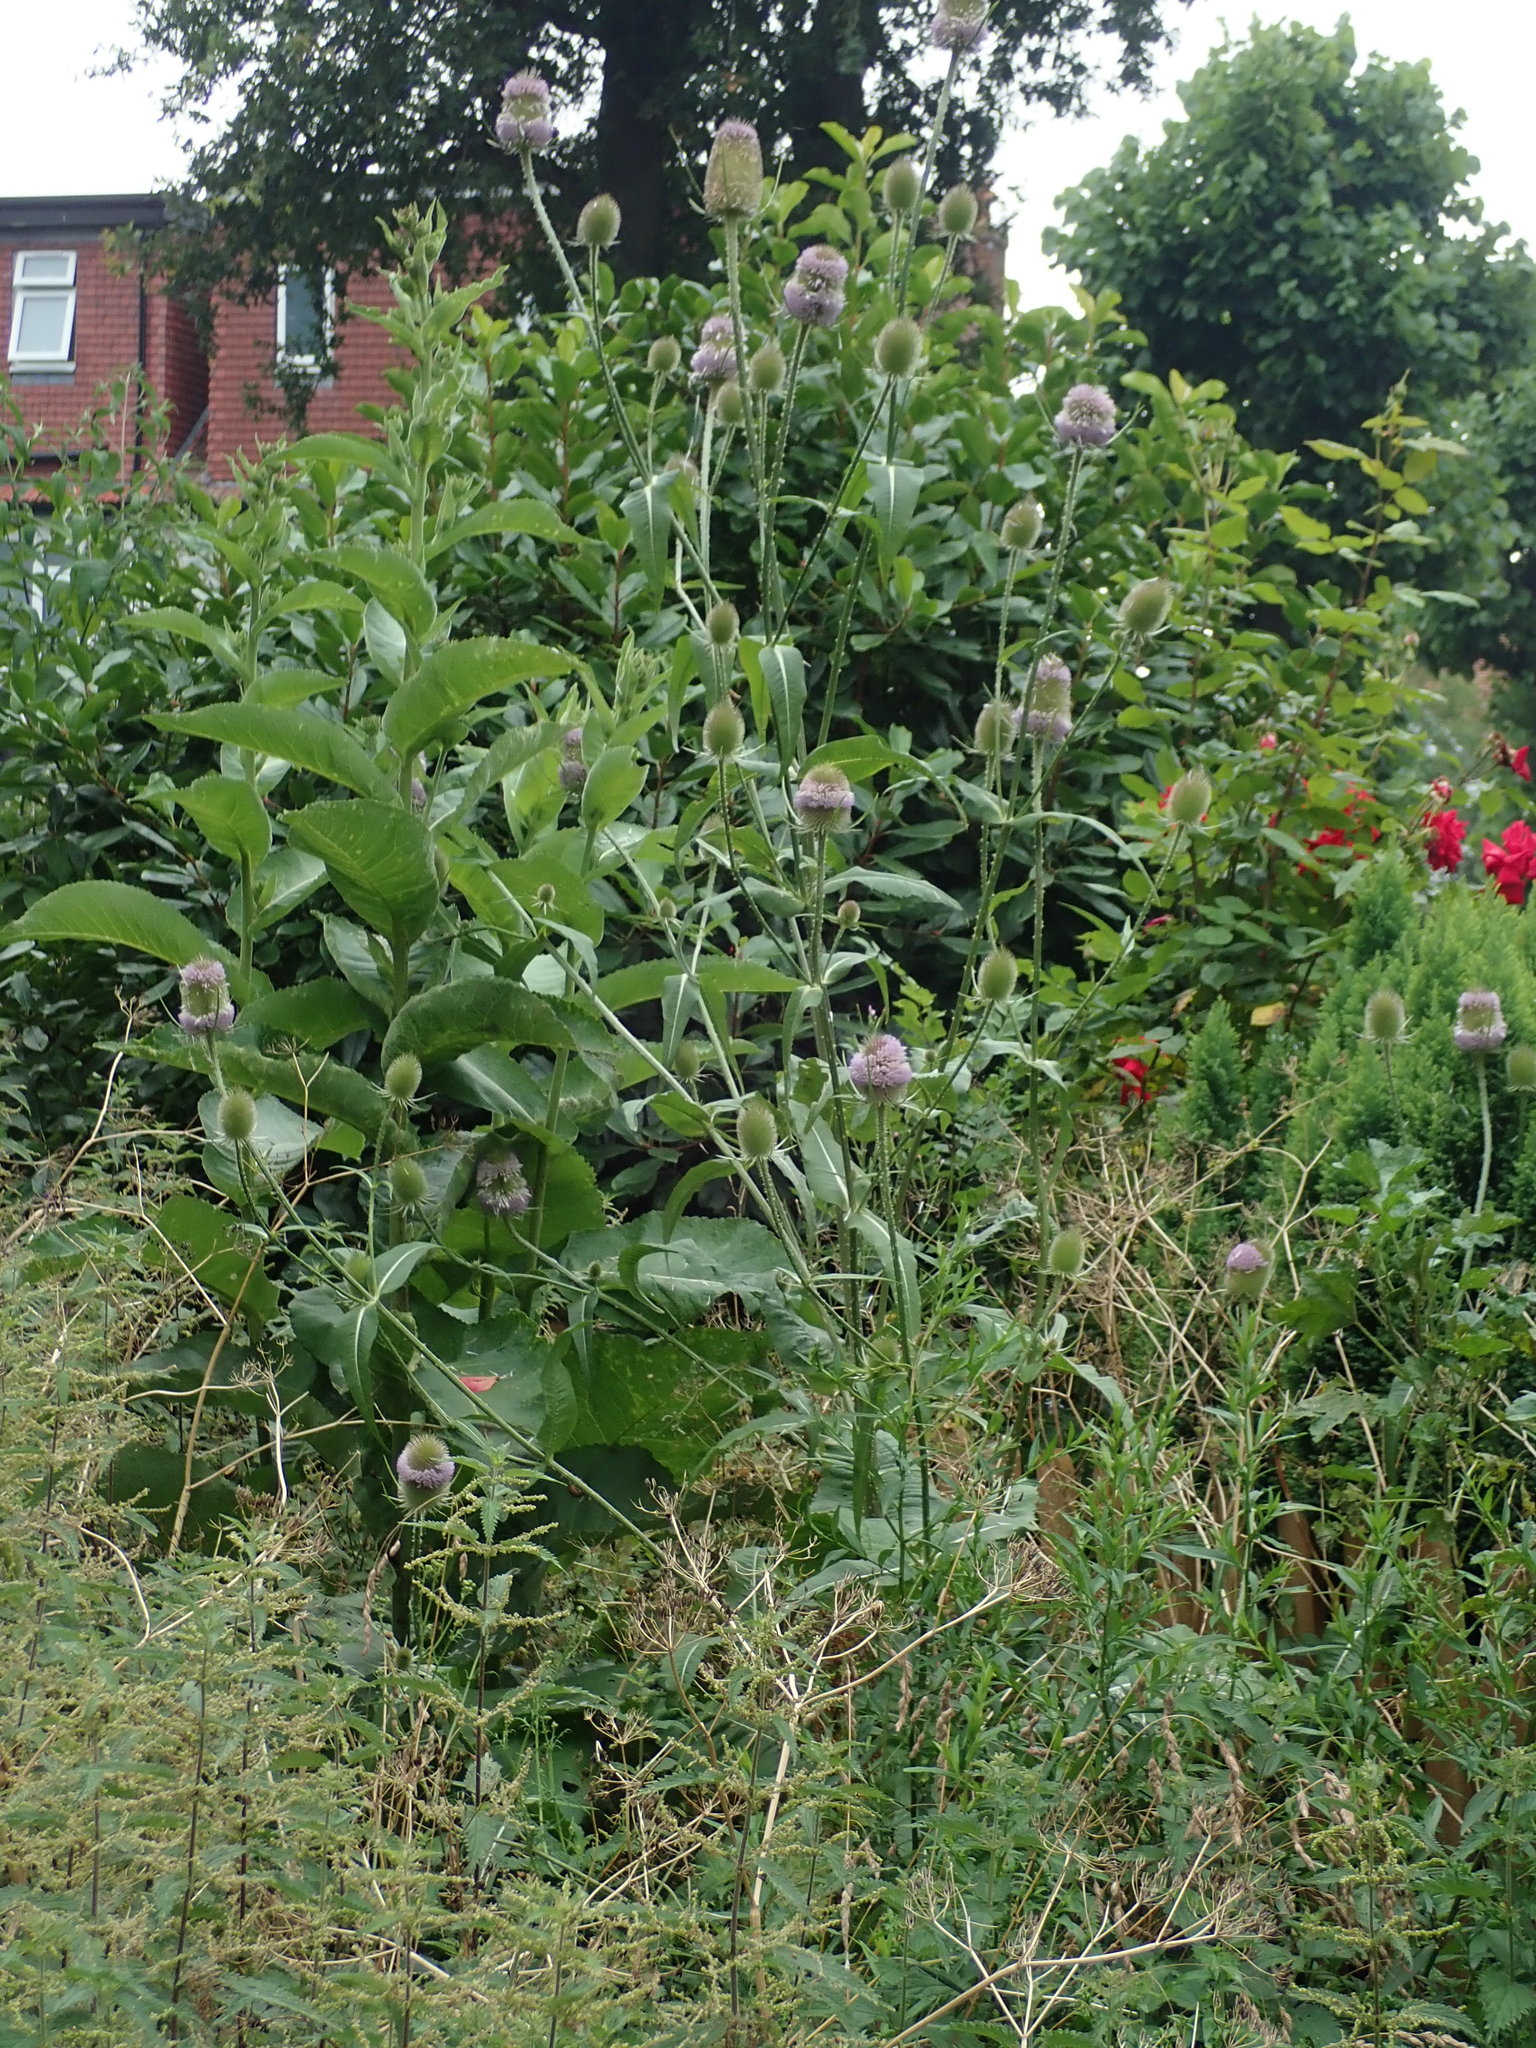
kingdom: Plantae
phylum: Tracheophyta
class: Magnoliopsida
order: Dipsacales
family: Caprifoliaceae
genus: Dipsacus
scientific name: Dipsacus fullonum
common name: Teasel
